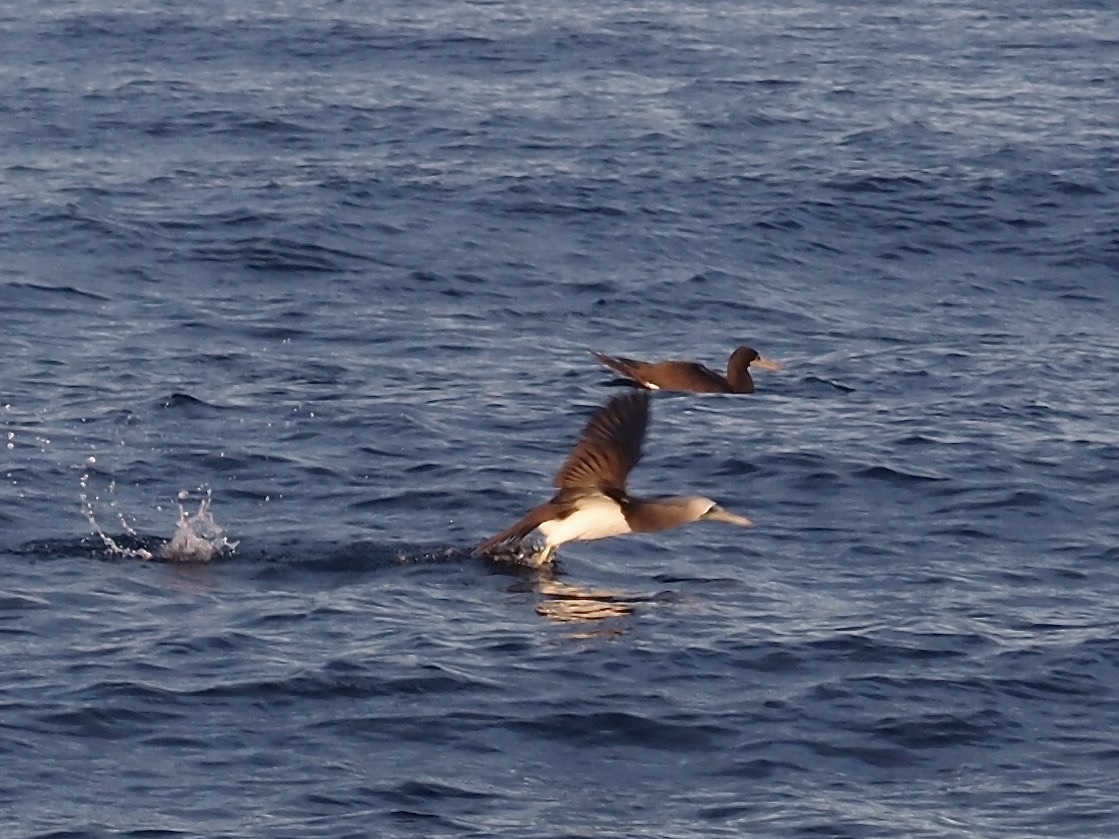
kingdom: Animalia
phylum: Chordata
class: Aves
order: Suliformes
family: Sulidae
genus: Sula
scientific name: Sula leucogaster
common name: Brown booby
